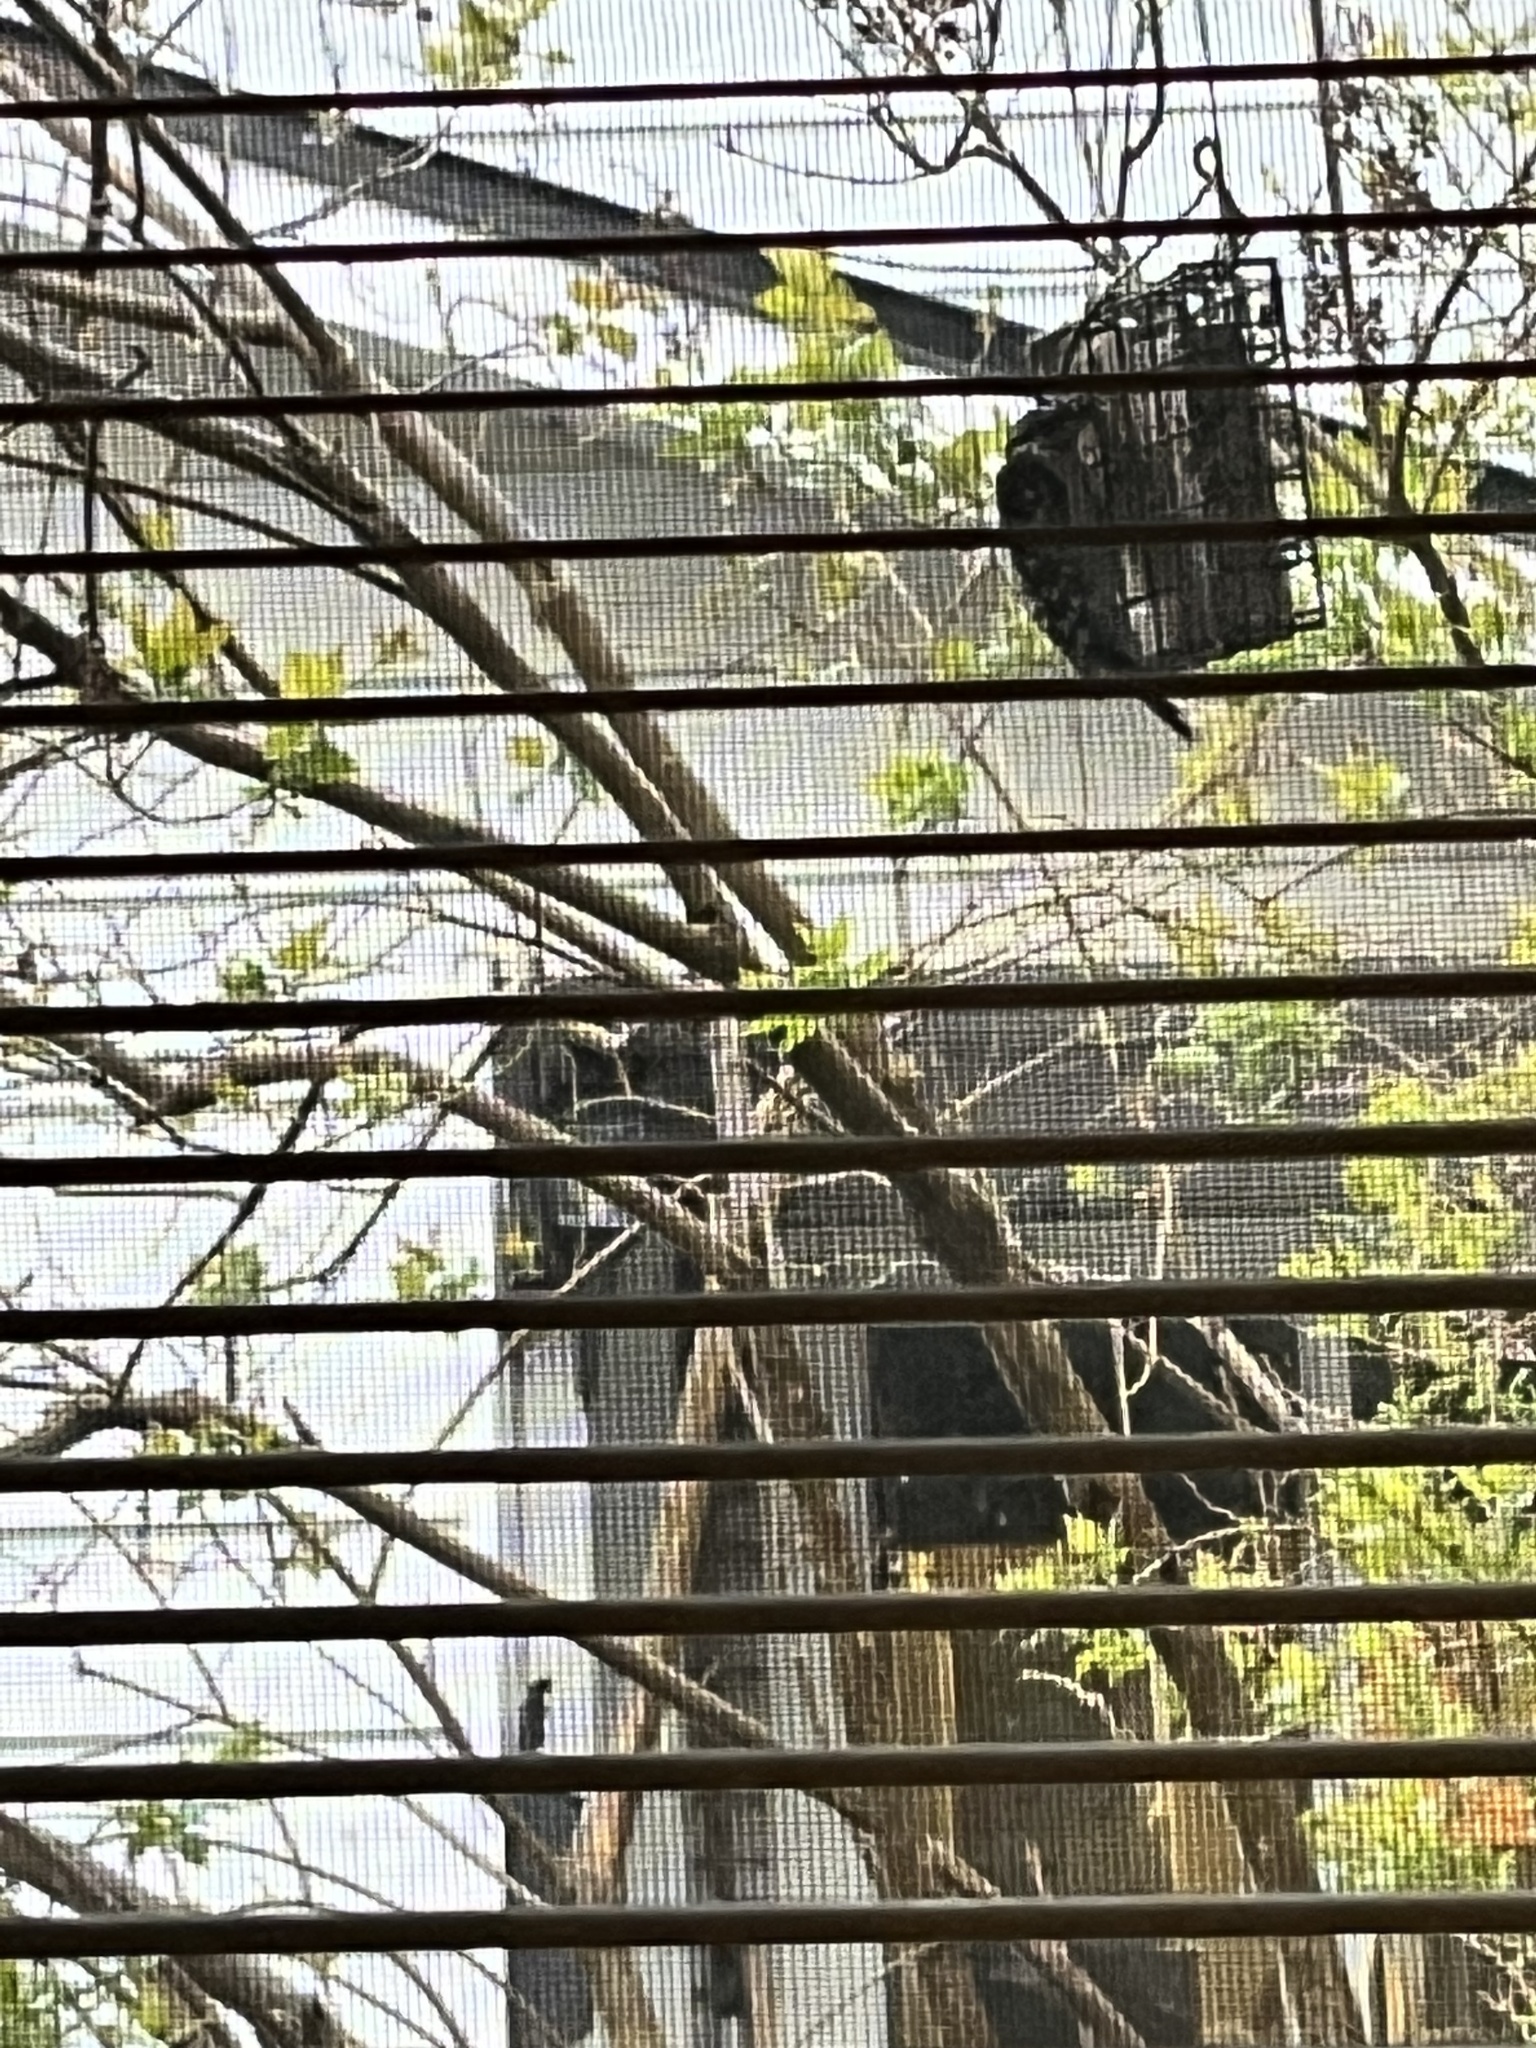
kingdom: Animalia
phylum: Chordata
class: Aves
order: Piciformes
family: Picidae
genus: Dryobates
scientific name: Dryobates pubescens
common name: Downy woodpecker
